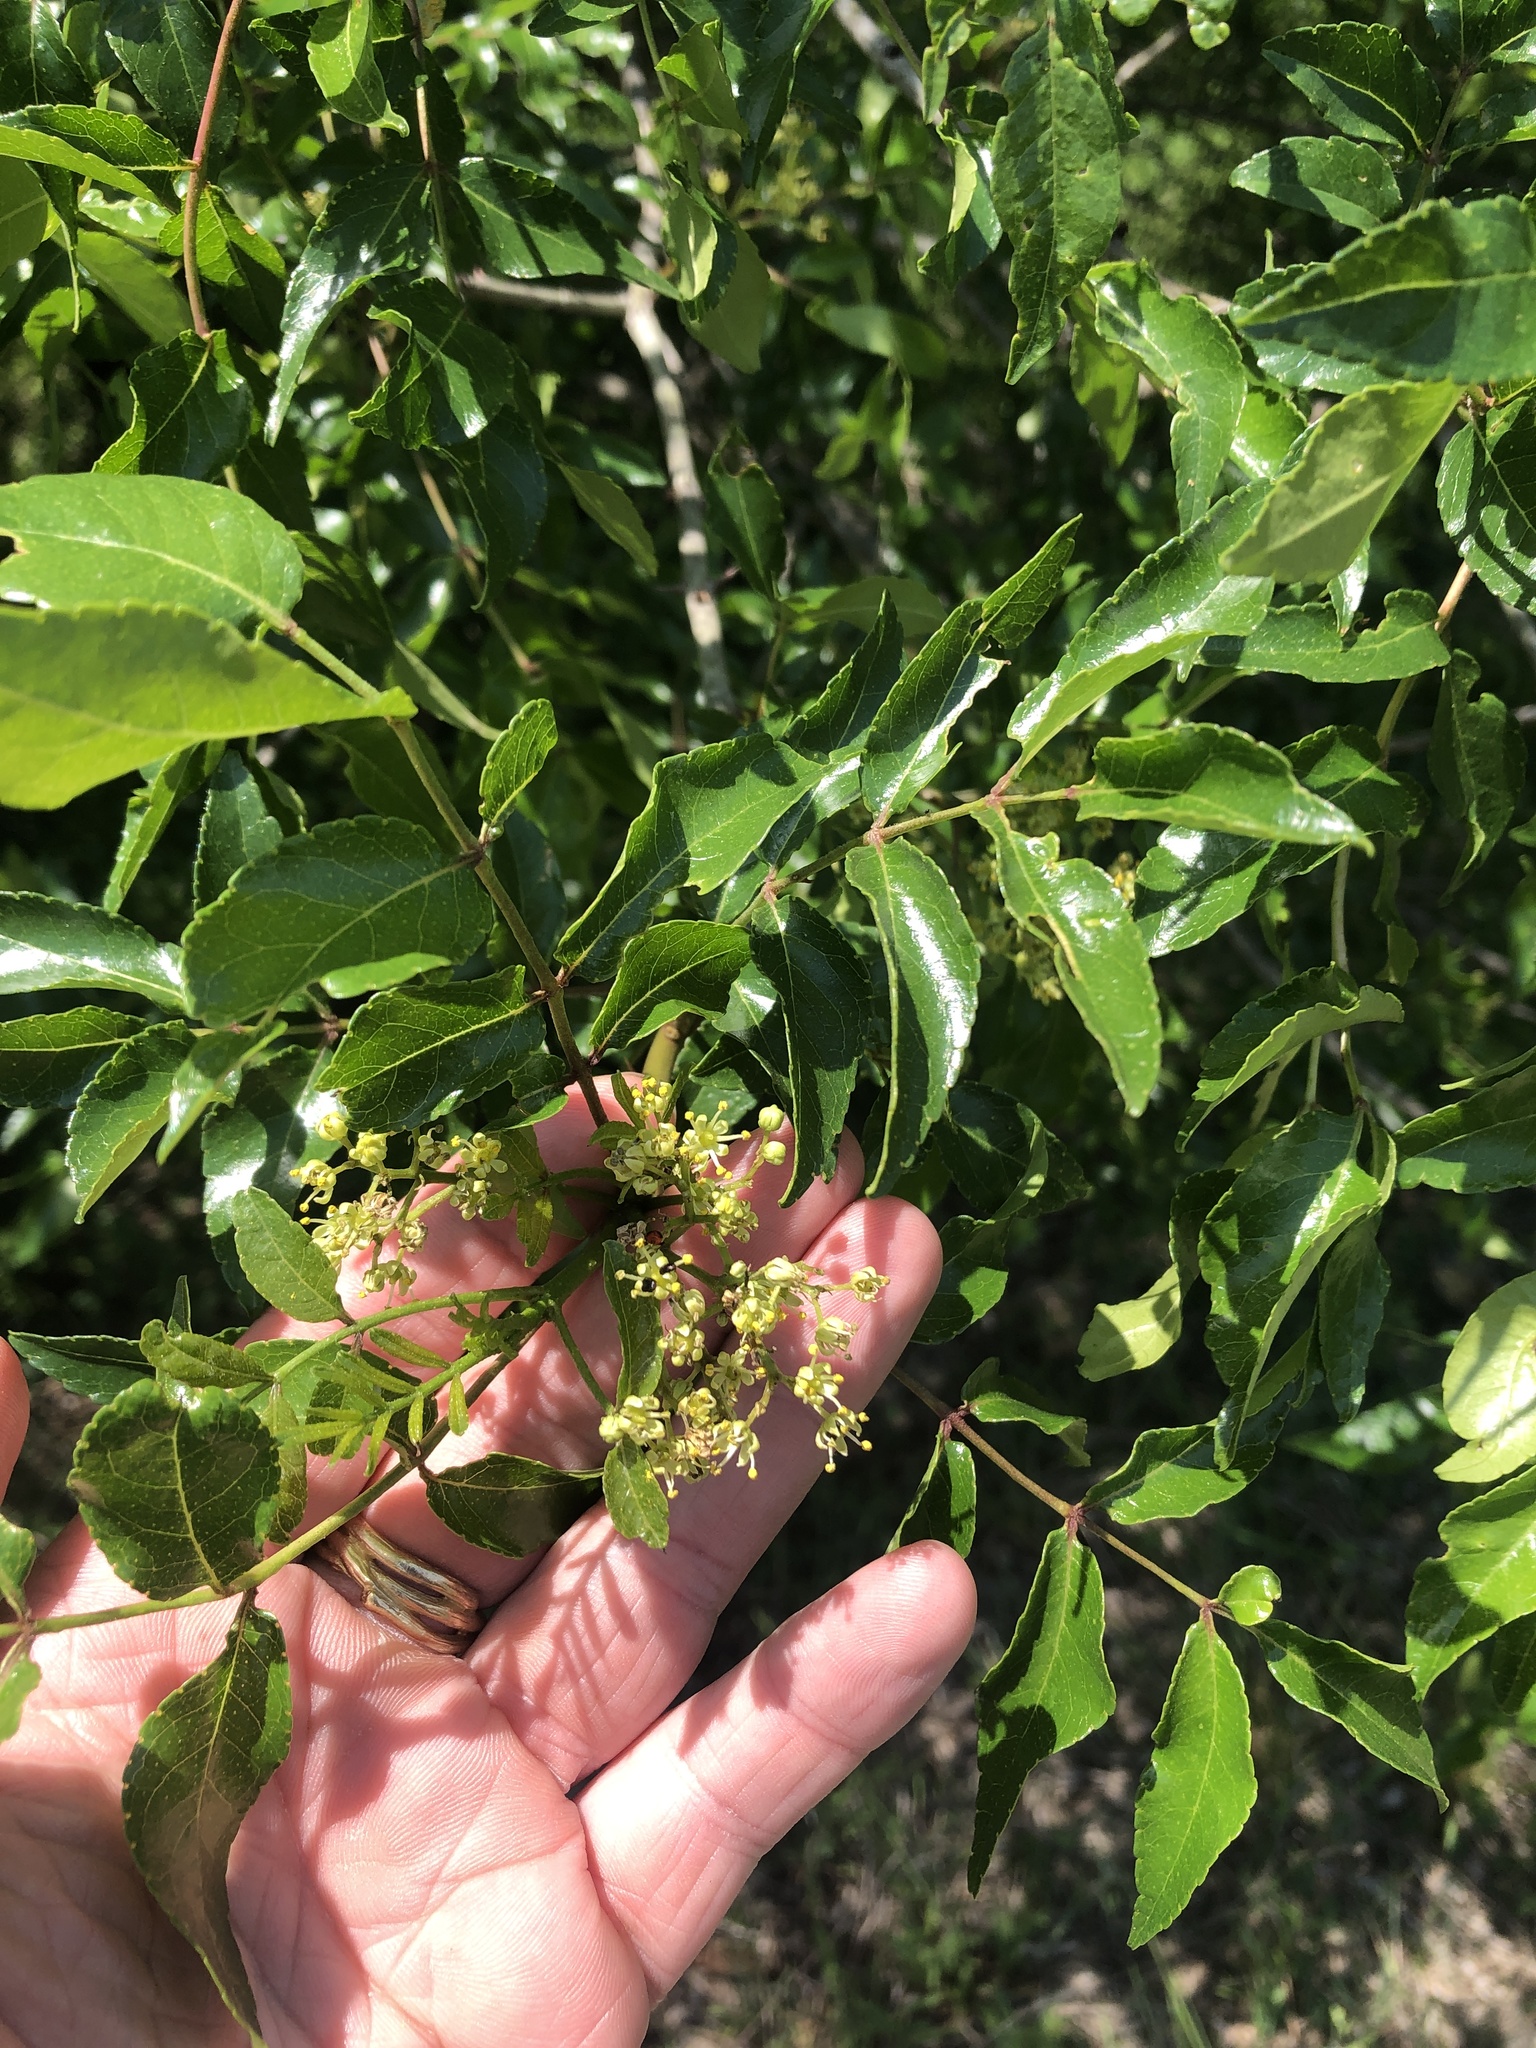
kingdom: Plantae
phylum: Tracheophyta
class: Magnoliopsida
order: Sapindales
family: Rutaceae
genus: Zanthoxylum
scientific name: Zanthoxylum clava-herculis
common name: Hercules'-club
